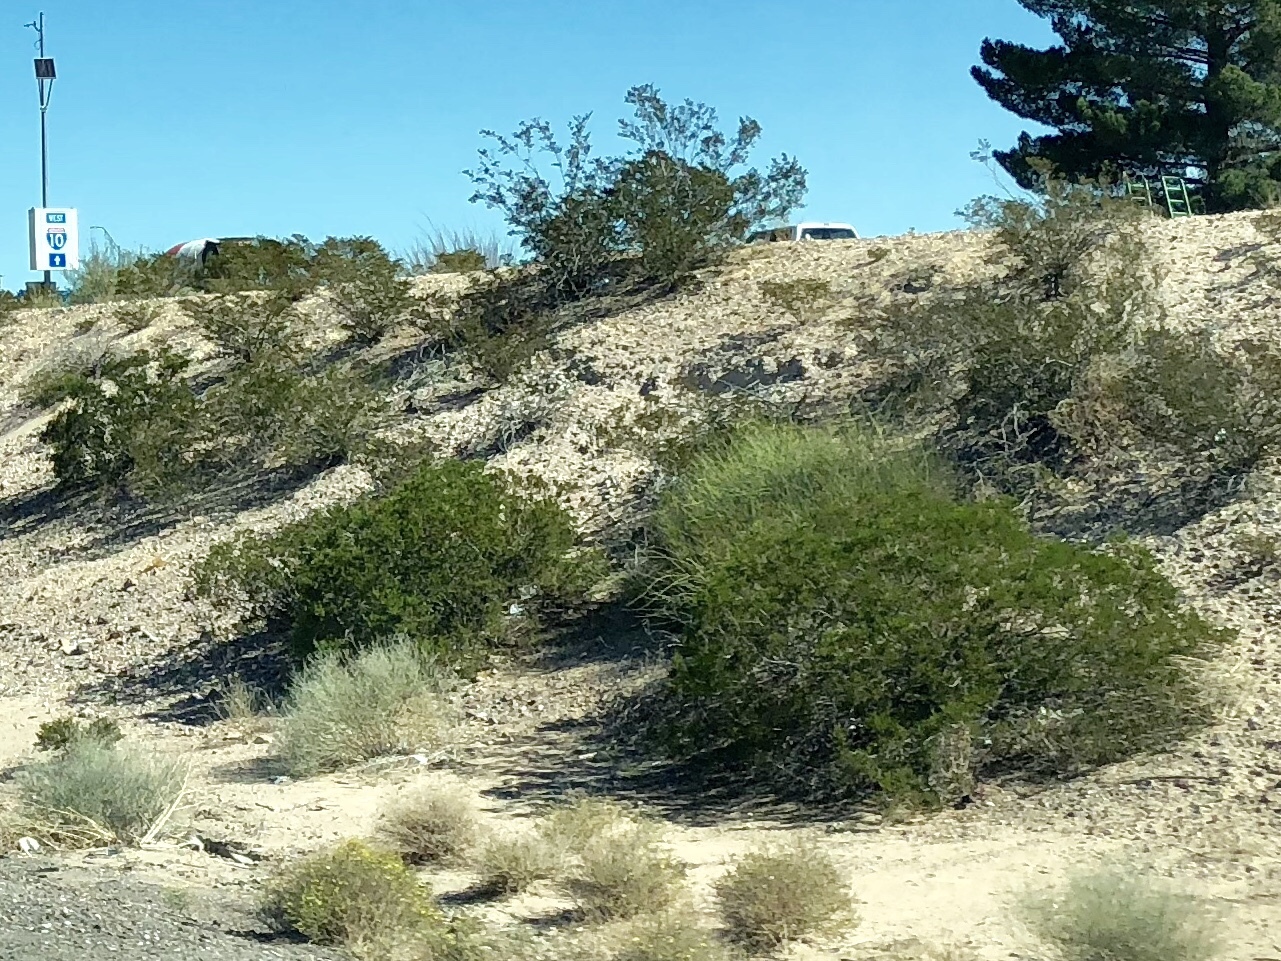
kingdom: Plantae
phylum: Tracheophyta
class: Magnoliopsida
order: Zygophyllales
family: Zygophyllaceae
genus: Larrea
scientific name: Larrea tridentata
